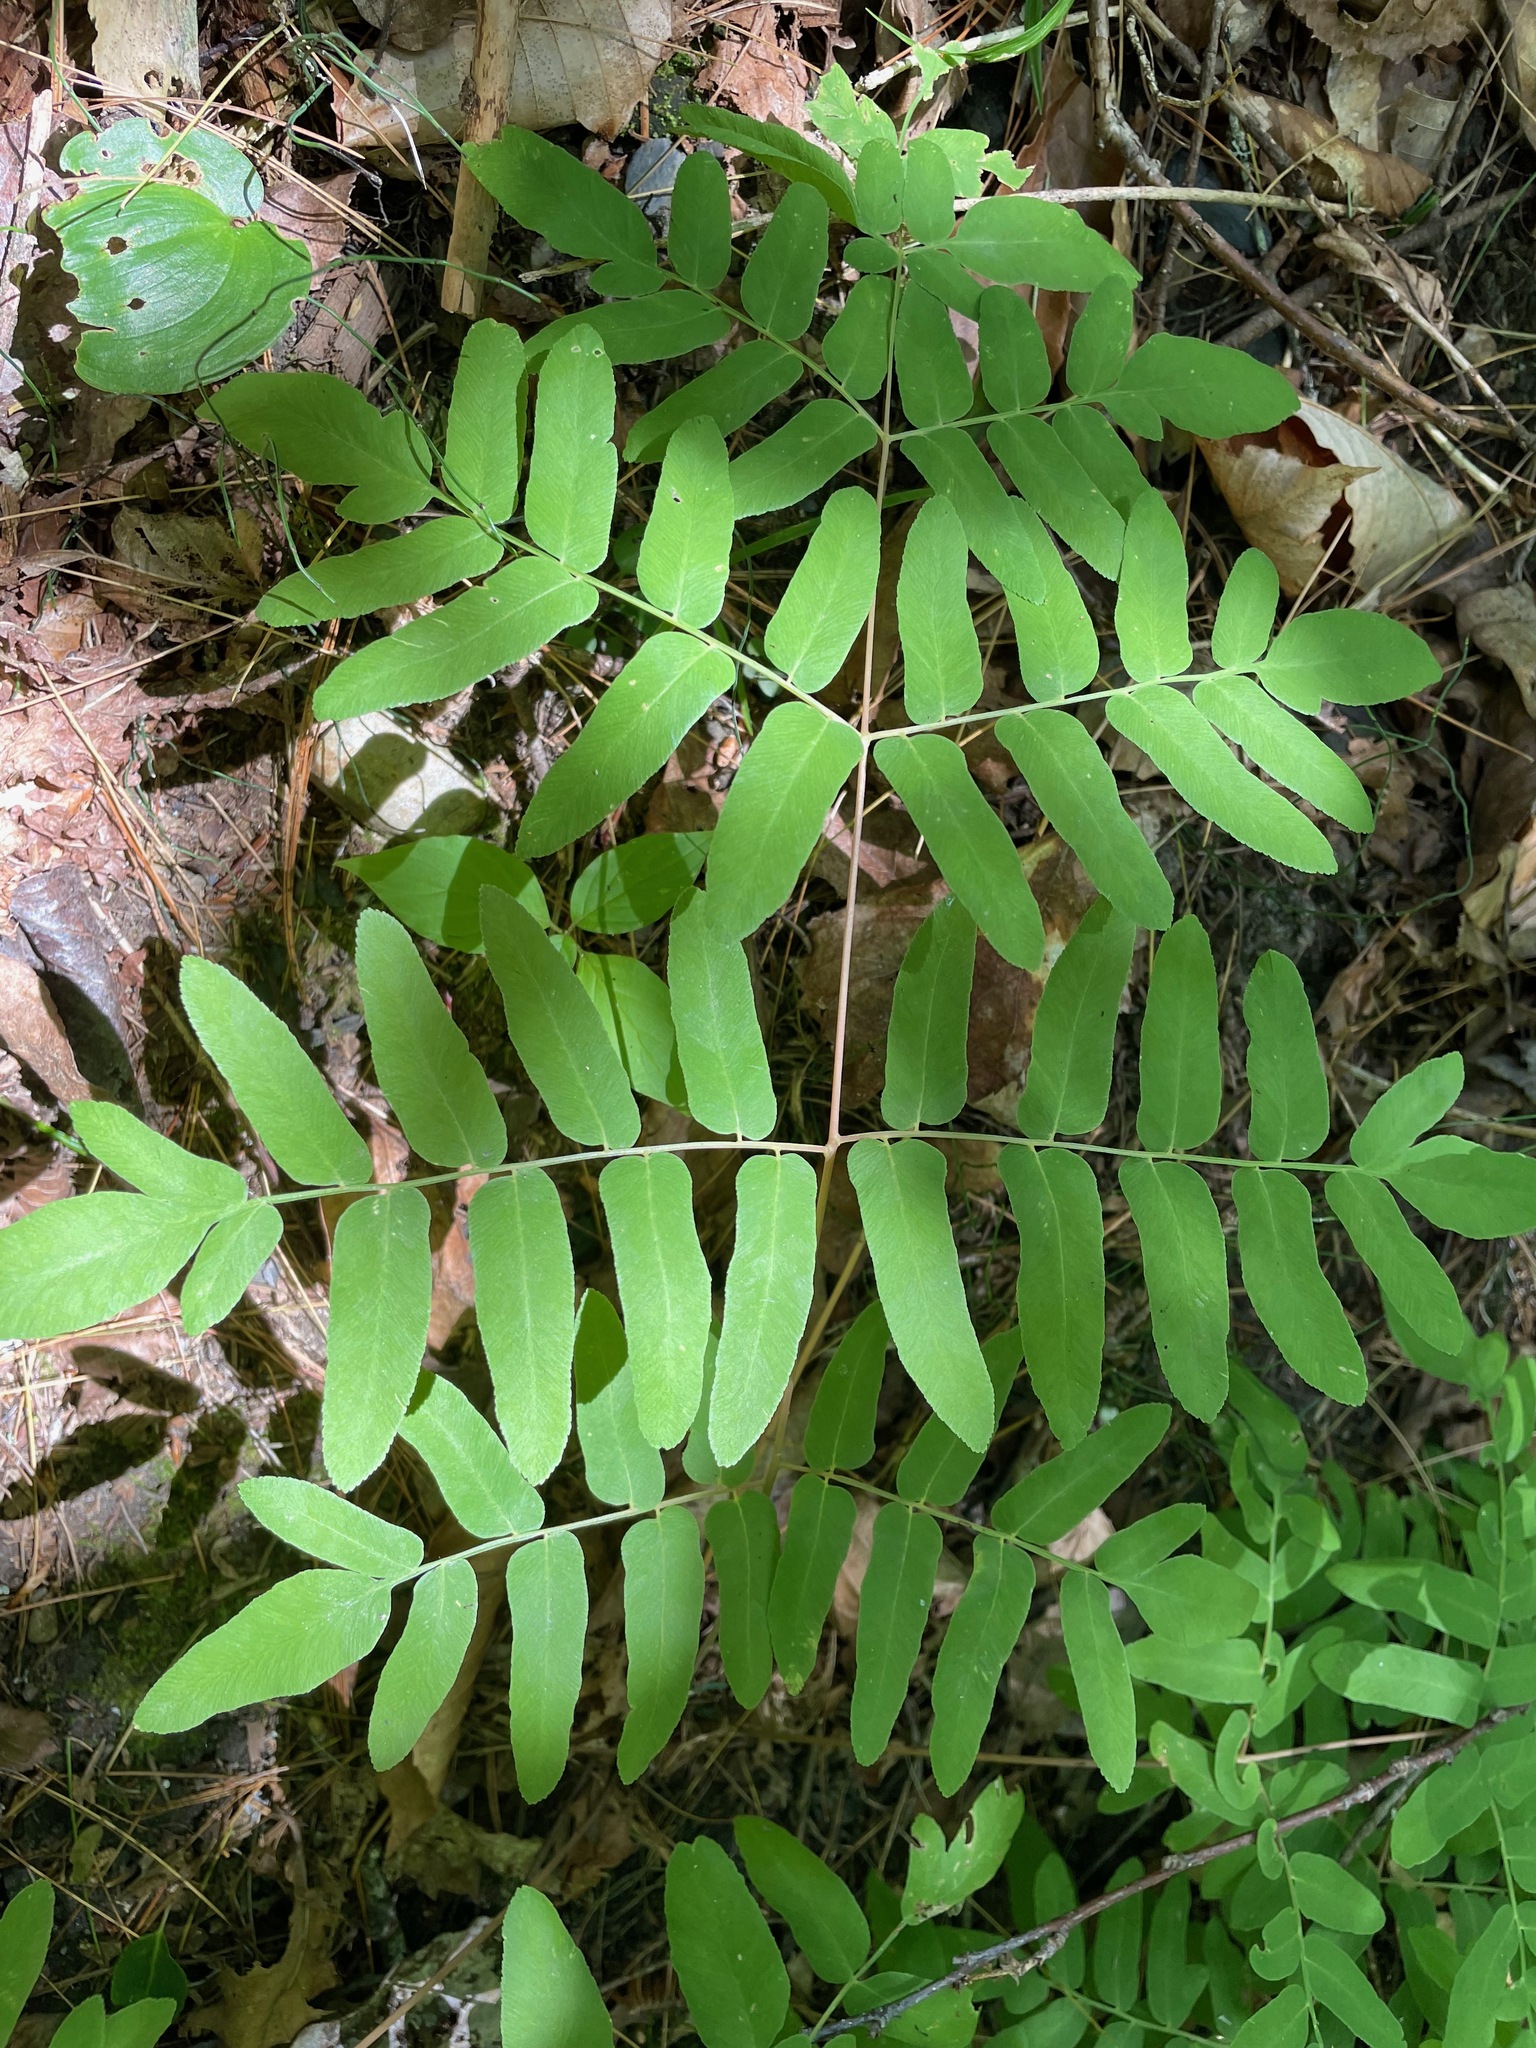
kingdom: Plantae
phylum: Tracheophyta
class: Polypodiopsida
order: Osmundales
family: Osmundaceae
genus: Osmunda
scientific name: Osmunda spectabilis
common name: American royal fern
